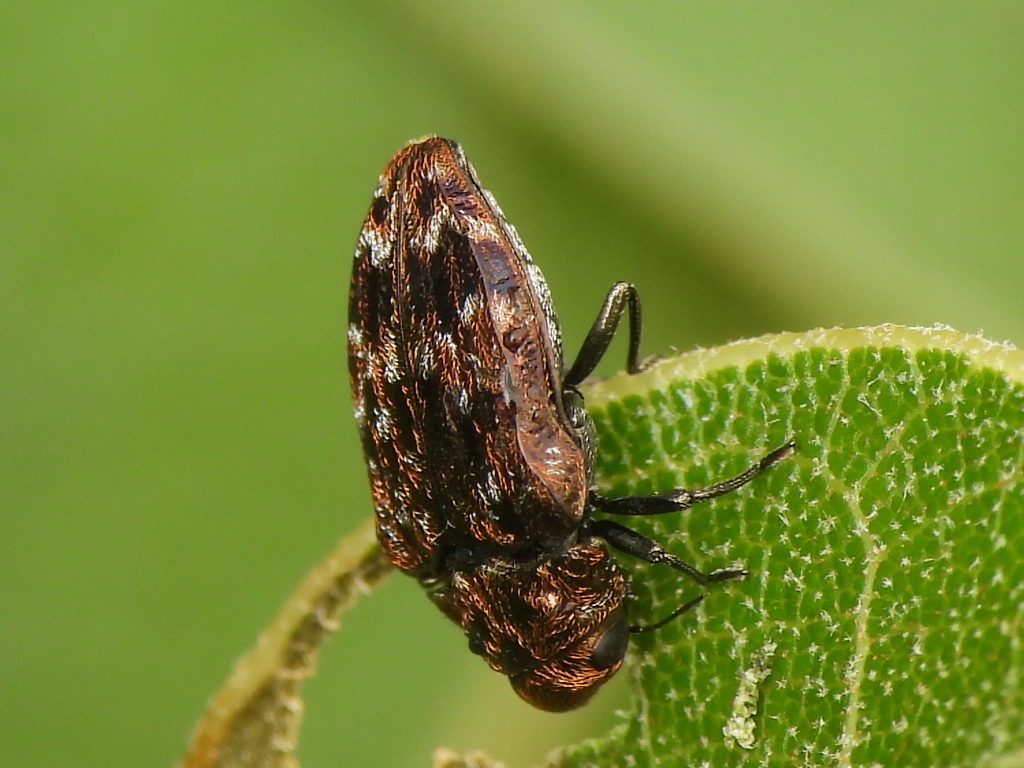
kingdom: Animalia
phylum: Arthropoda
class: Insecta
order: Coleoptera
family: Buprestidae
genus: Brachys
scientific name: Brachys ovatus
